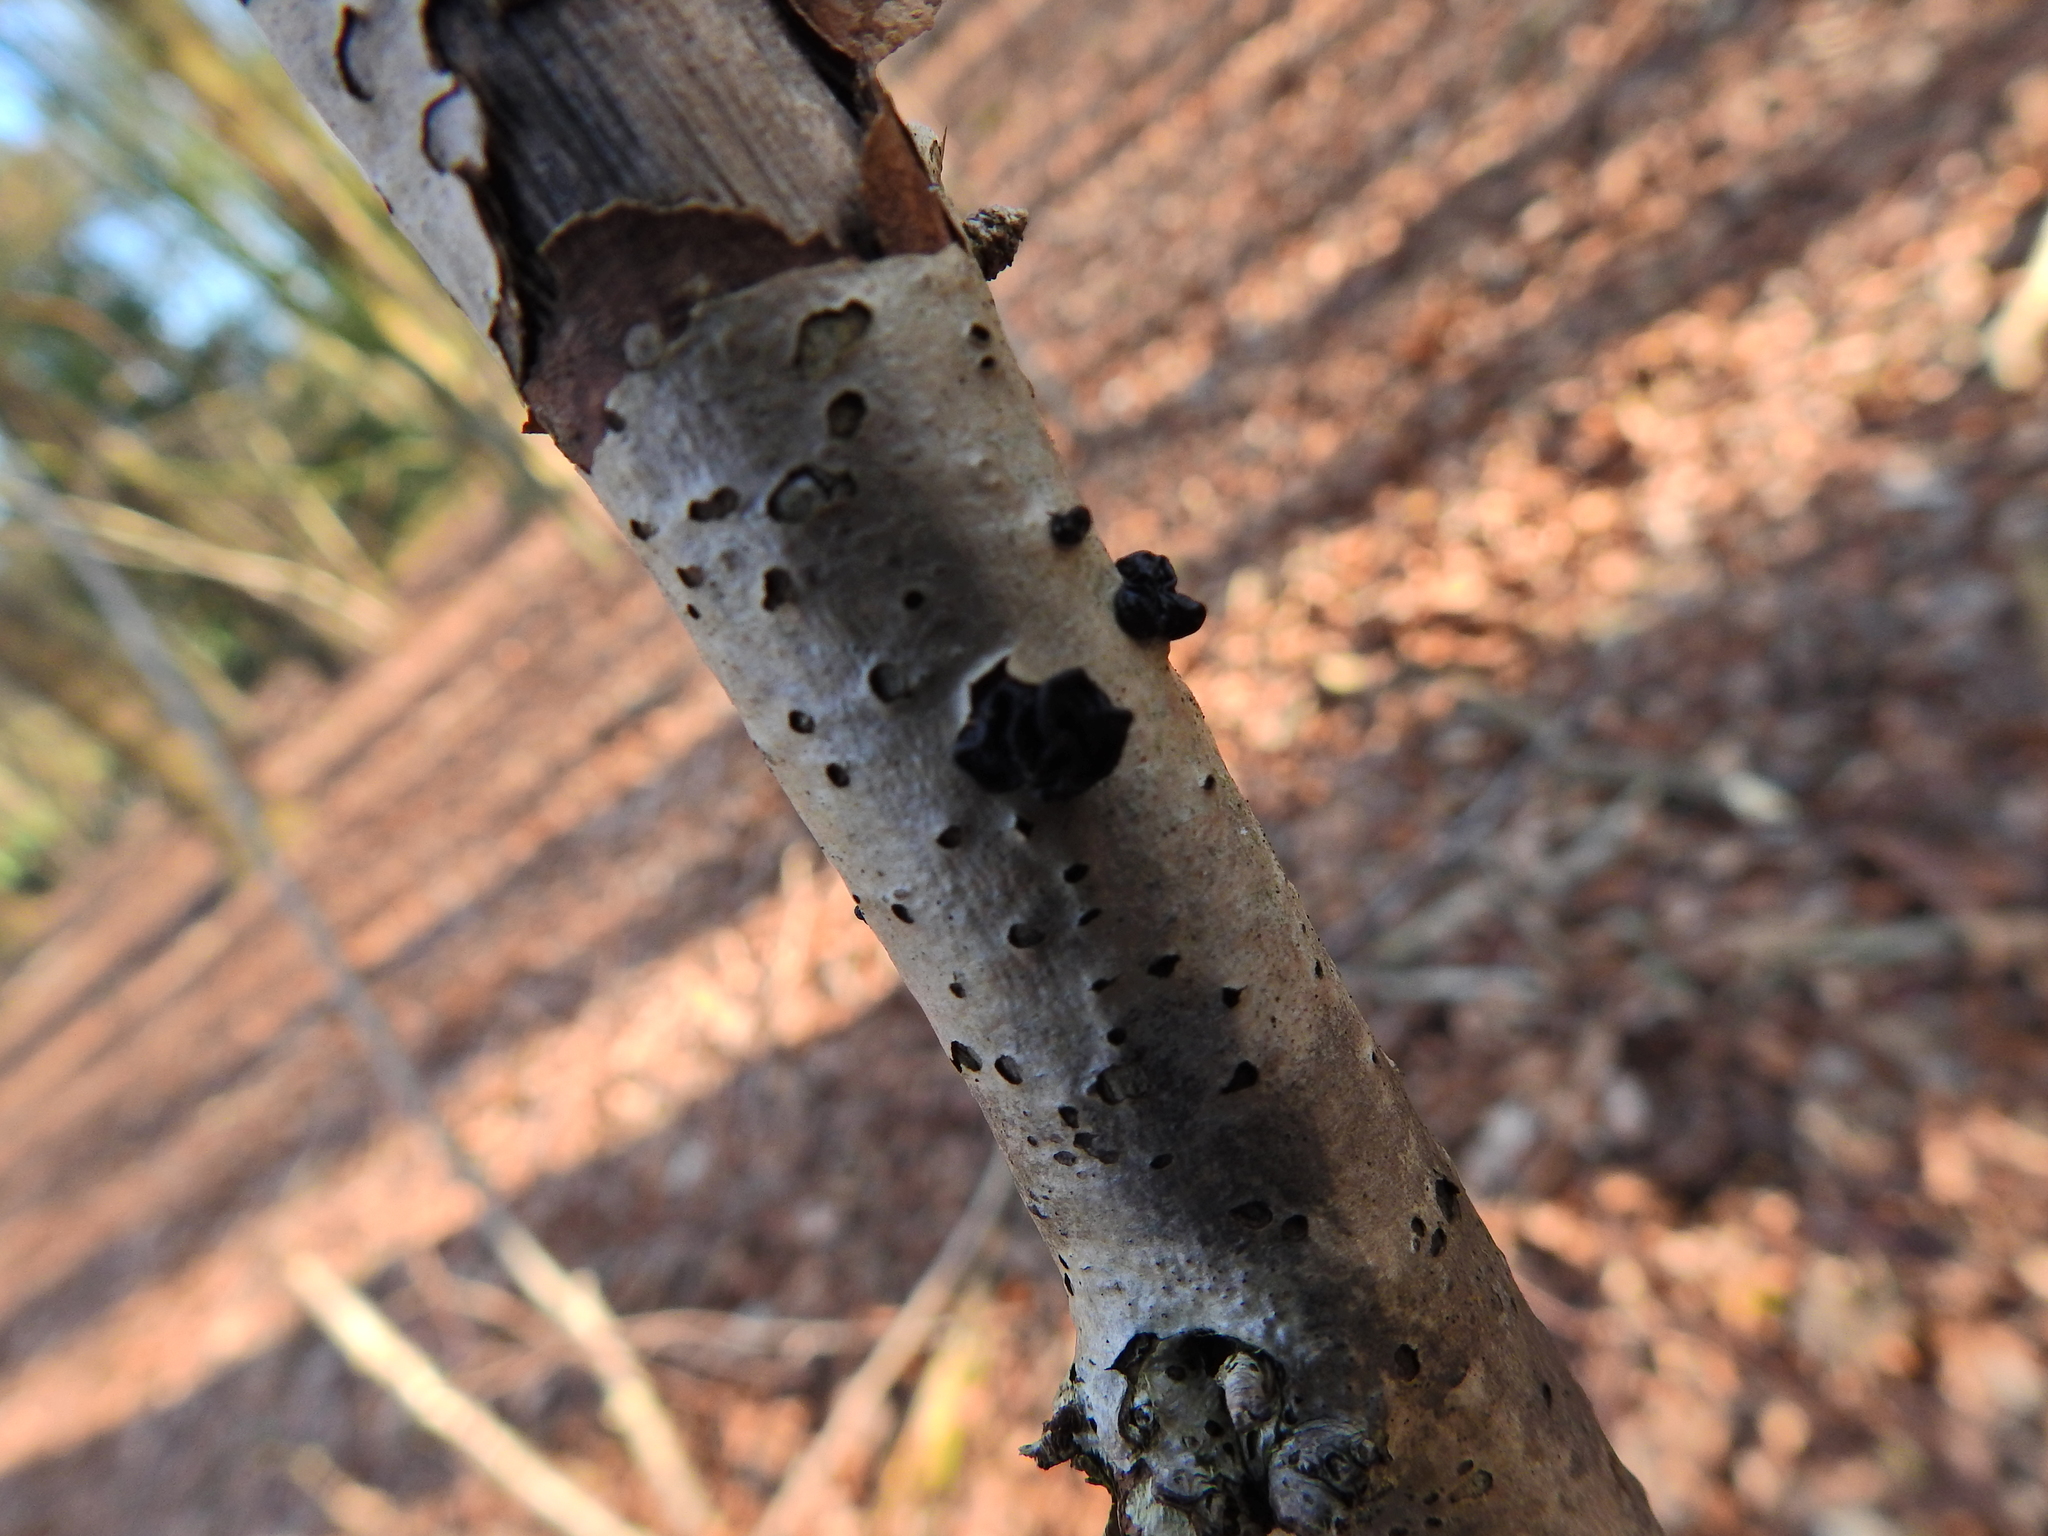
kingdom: Fungi
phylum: Basidiomycota
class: Agaricomycetes
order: Auriculariales
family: Auriculariaceae
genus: Exidia
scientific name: Exidia glandulosa
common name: Witches' butter
